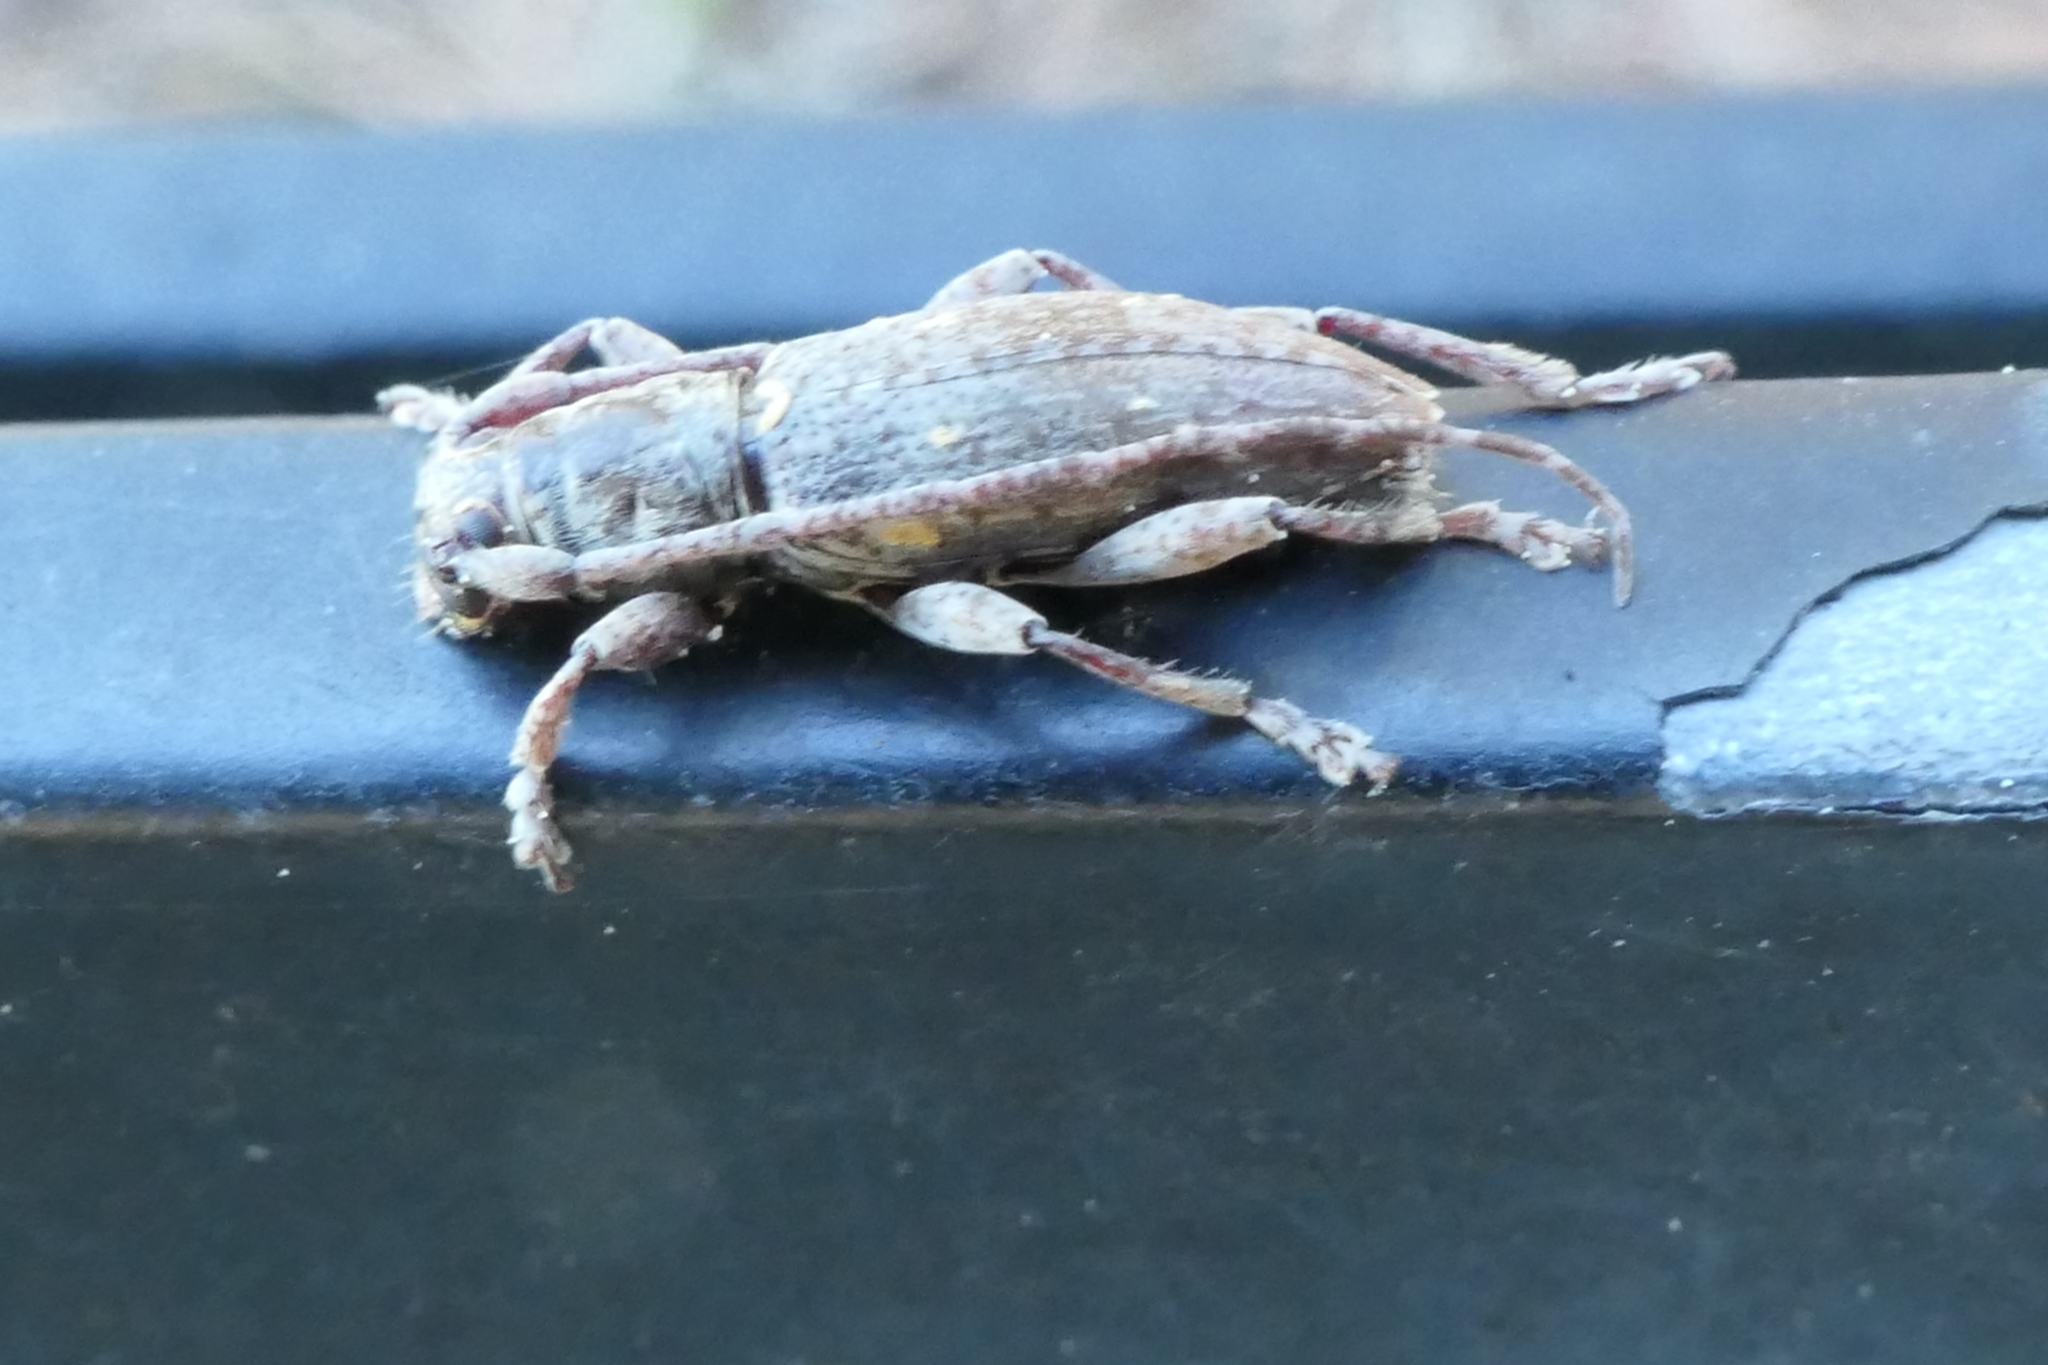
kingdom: Animalia
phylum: Arthropoda
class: Insecta
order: Coleoptera
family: Cerambycidae
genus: Xylotoles
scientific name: Xylotoles griseus
